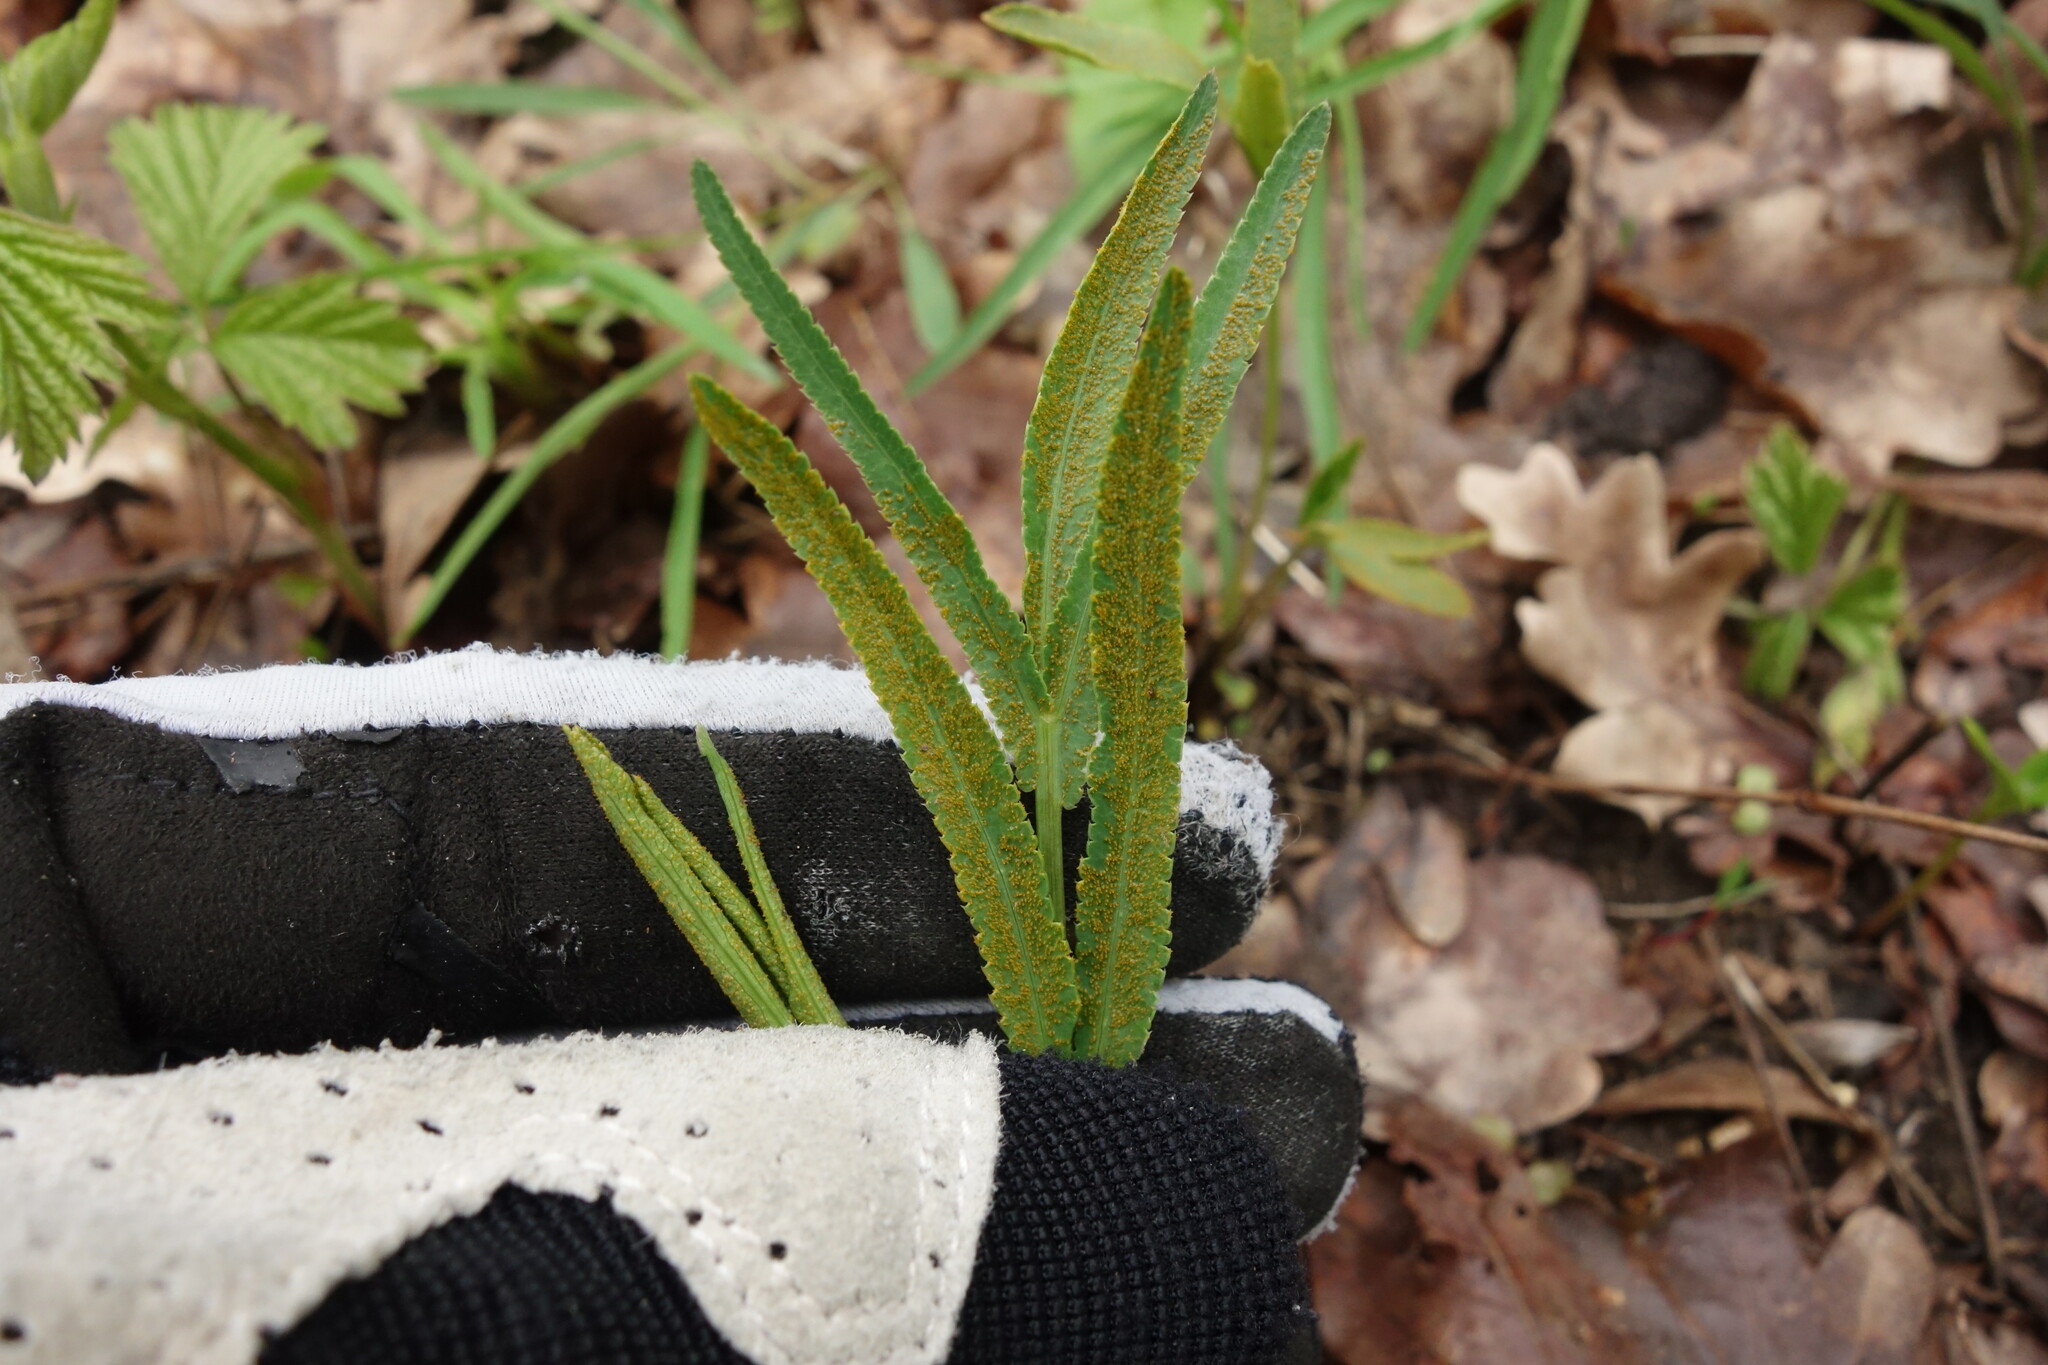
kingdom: Plantae
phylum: Tracheophyta
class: Magnoliopsida
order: Apiales
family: Apiaceae
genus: Falcaria
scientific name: Falcaria vulgaris
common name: Longleaf
